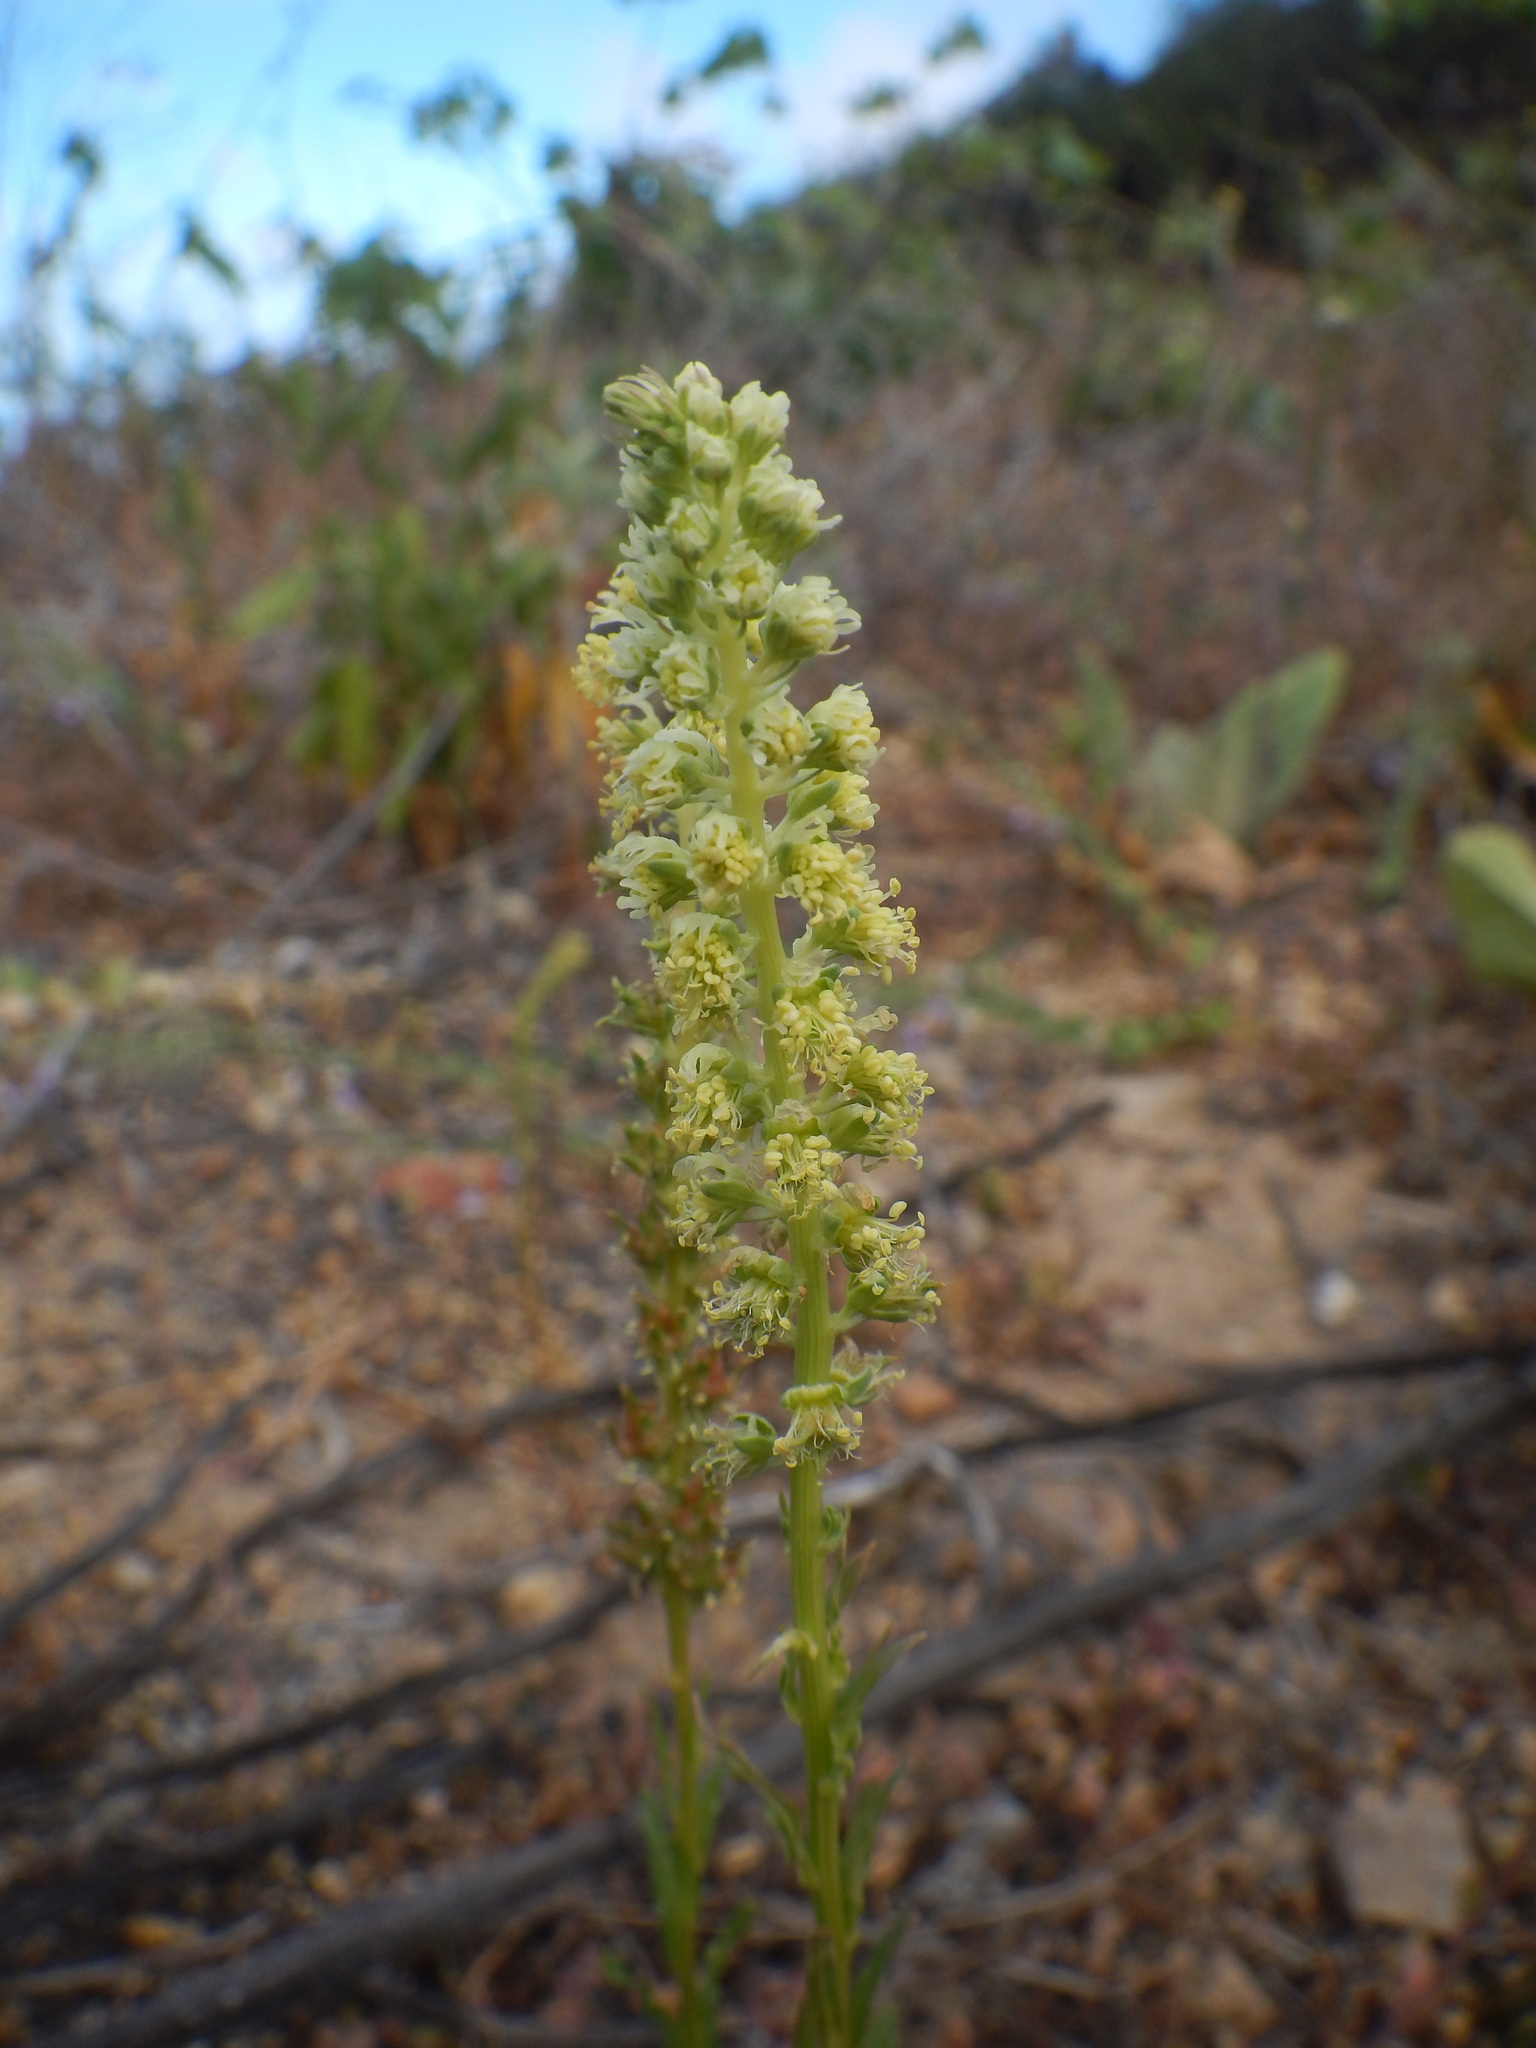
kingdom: Plantae
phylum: Tracheophyta
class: Magnoliopsida
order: Brassicales
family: Resedaceae
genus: Reseda
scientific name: Reseda luteola
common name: Weld
